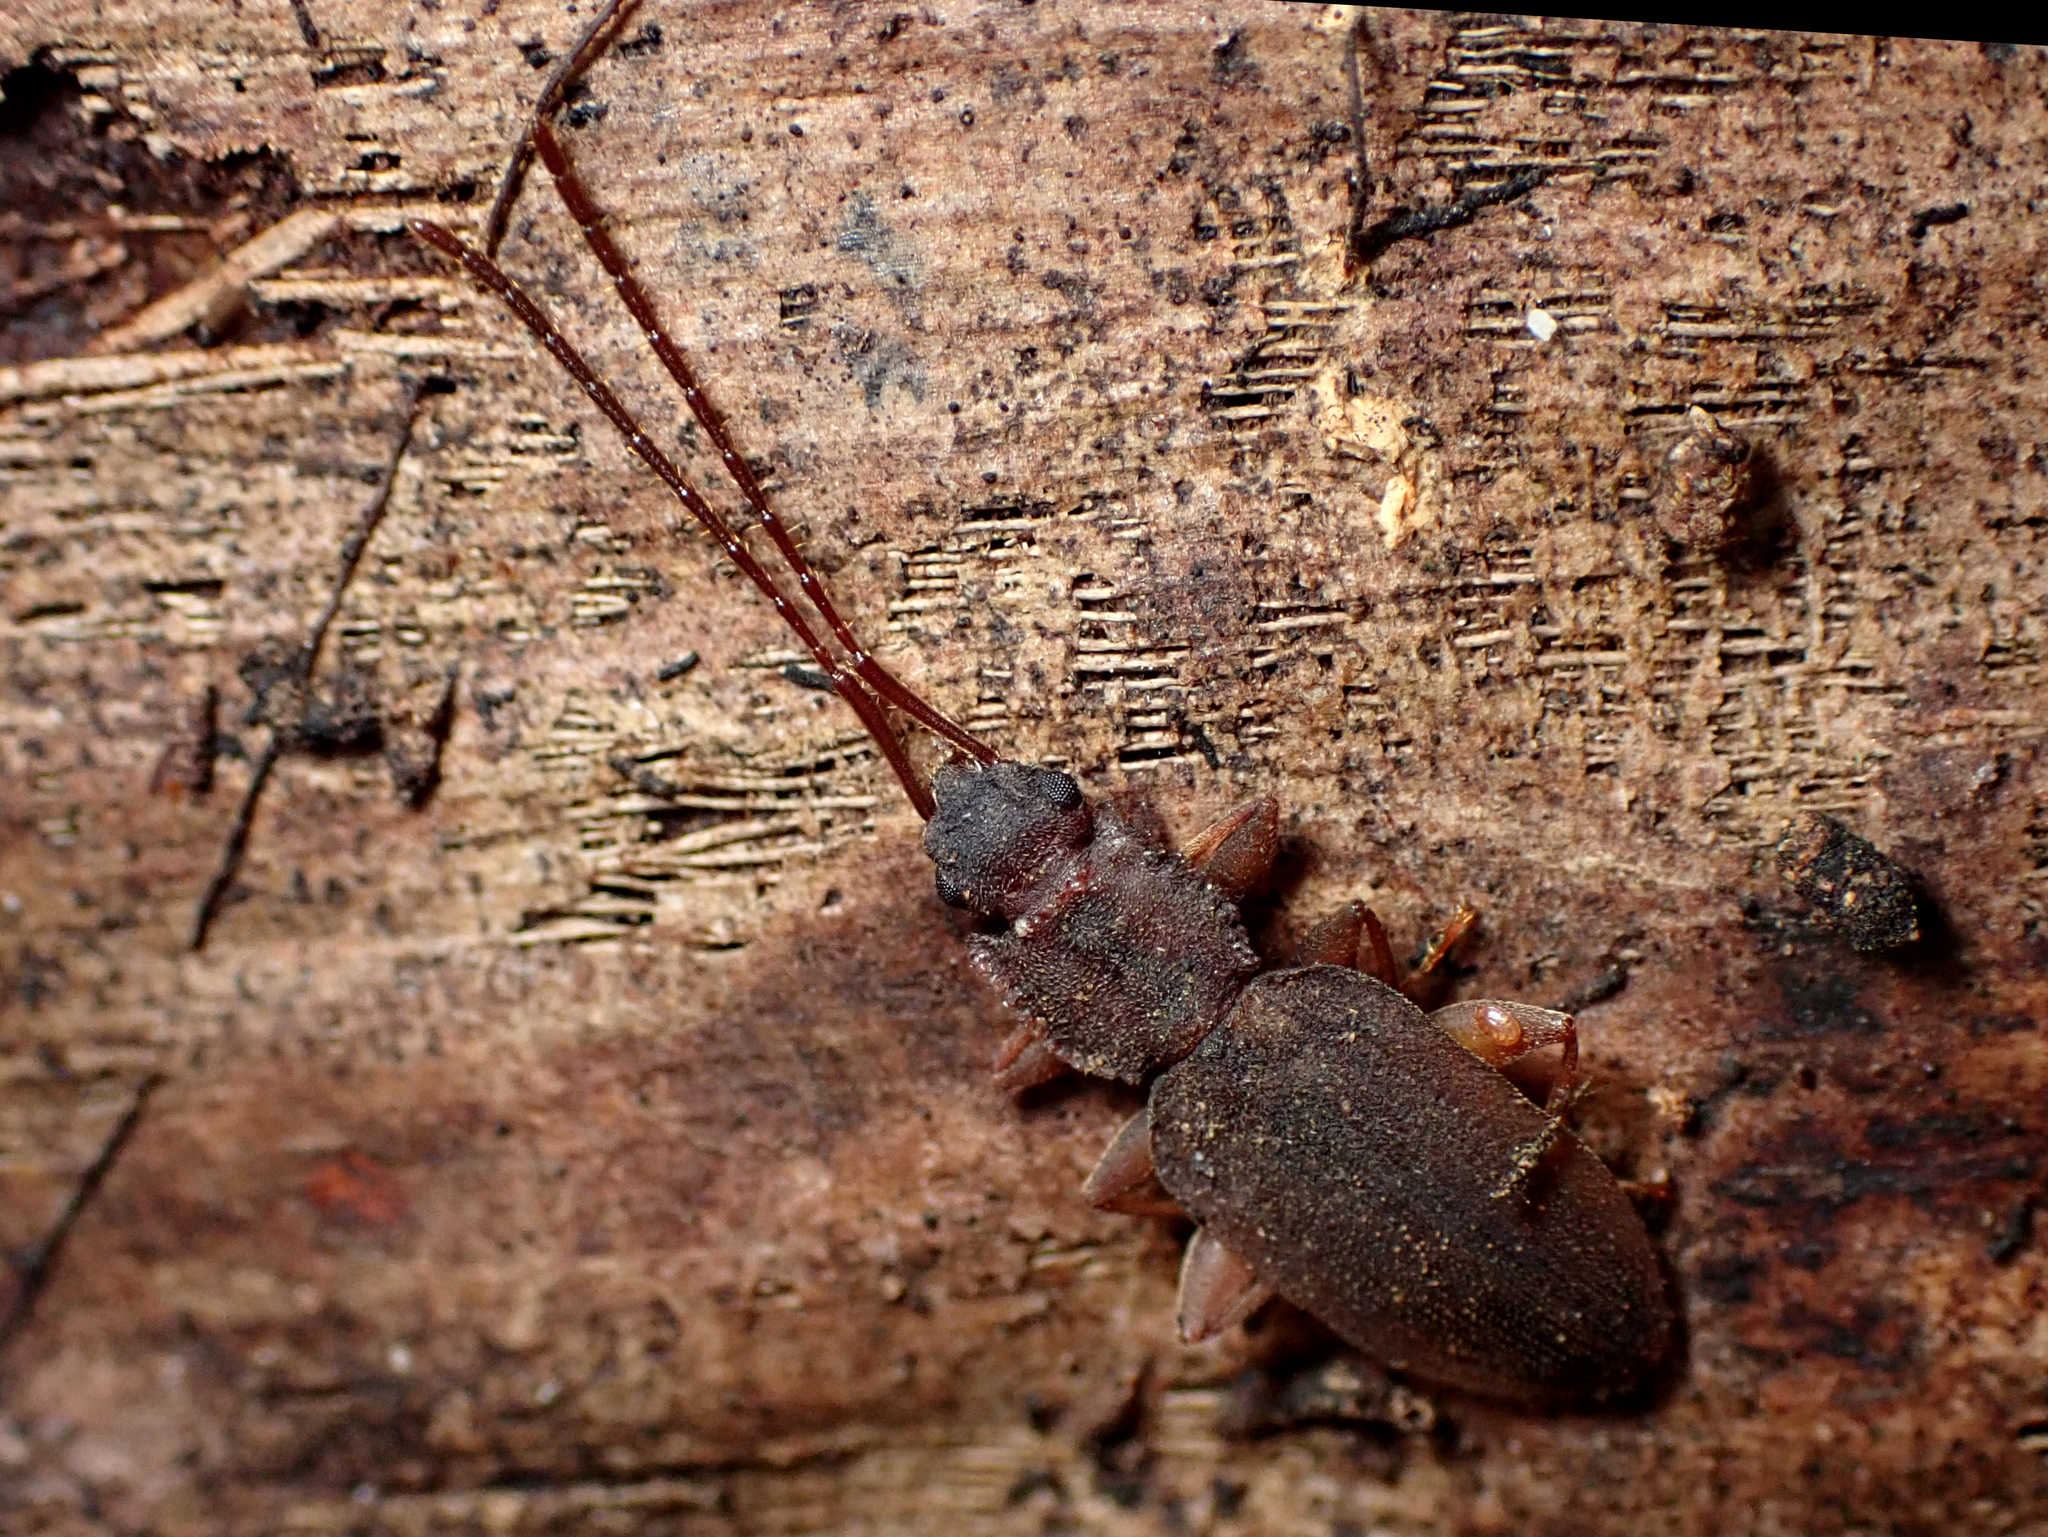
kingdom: Animalia
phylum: Arthropoda
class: Insecta
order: Coleoptera
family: Silvanidae
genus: Brontopriscus
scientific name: Brontopriscus
